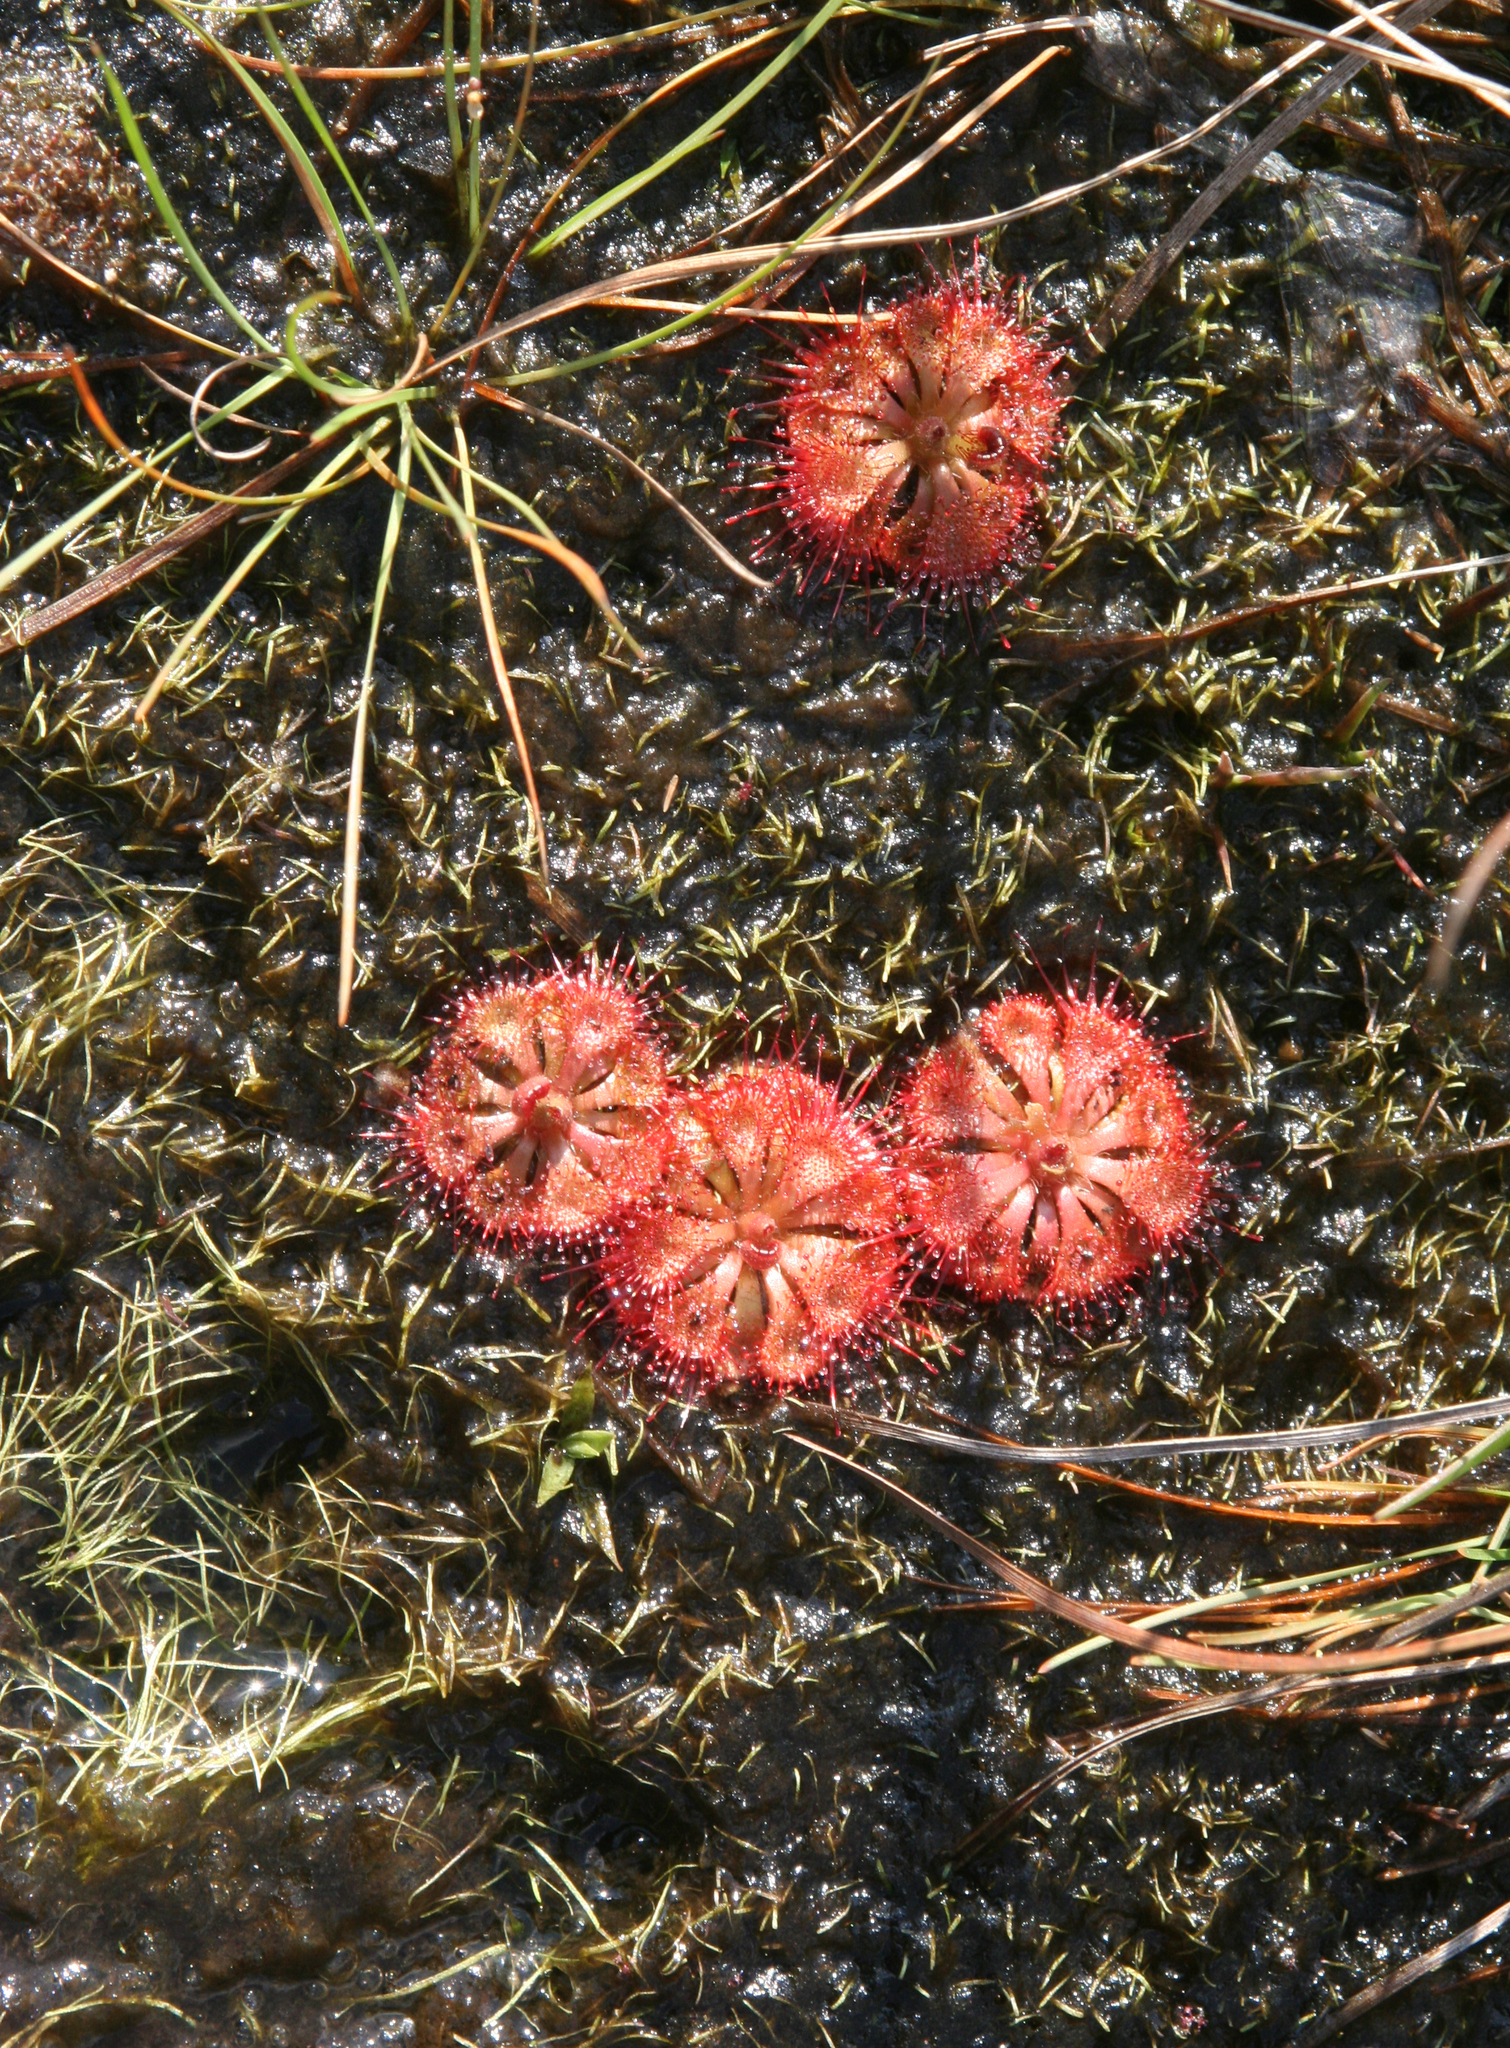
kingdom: Plantae
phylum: Tracheophyta
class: Magnoliopsida
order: Caryophyllales
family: Droseraceae
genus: Drosera
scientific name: Drosera spatulata
